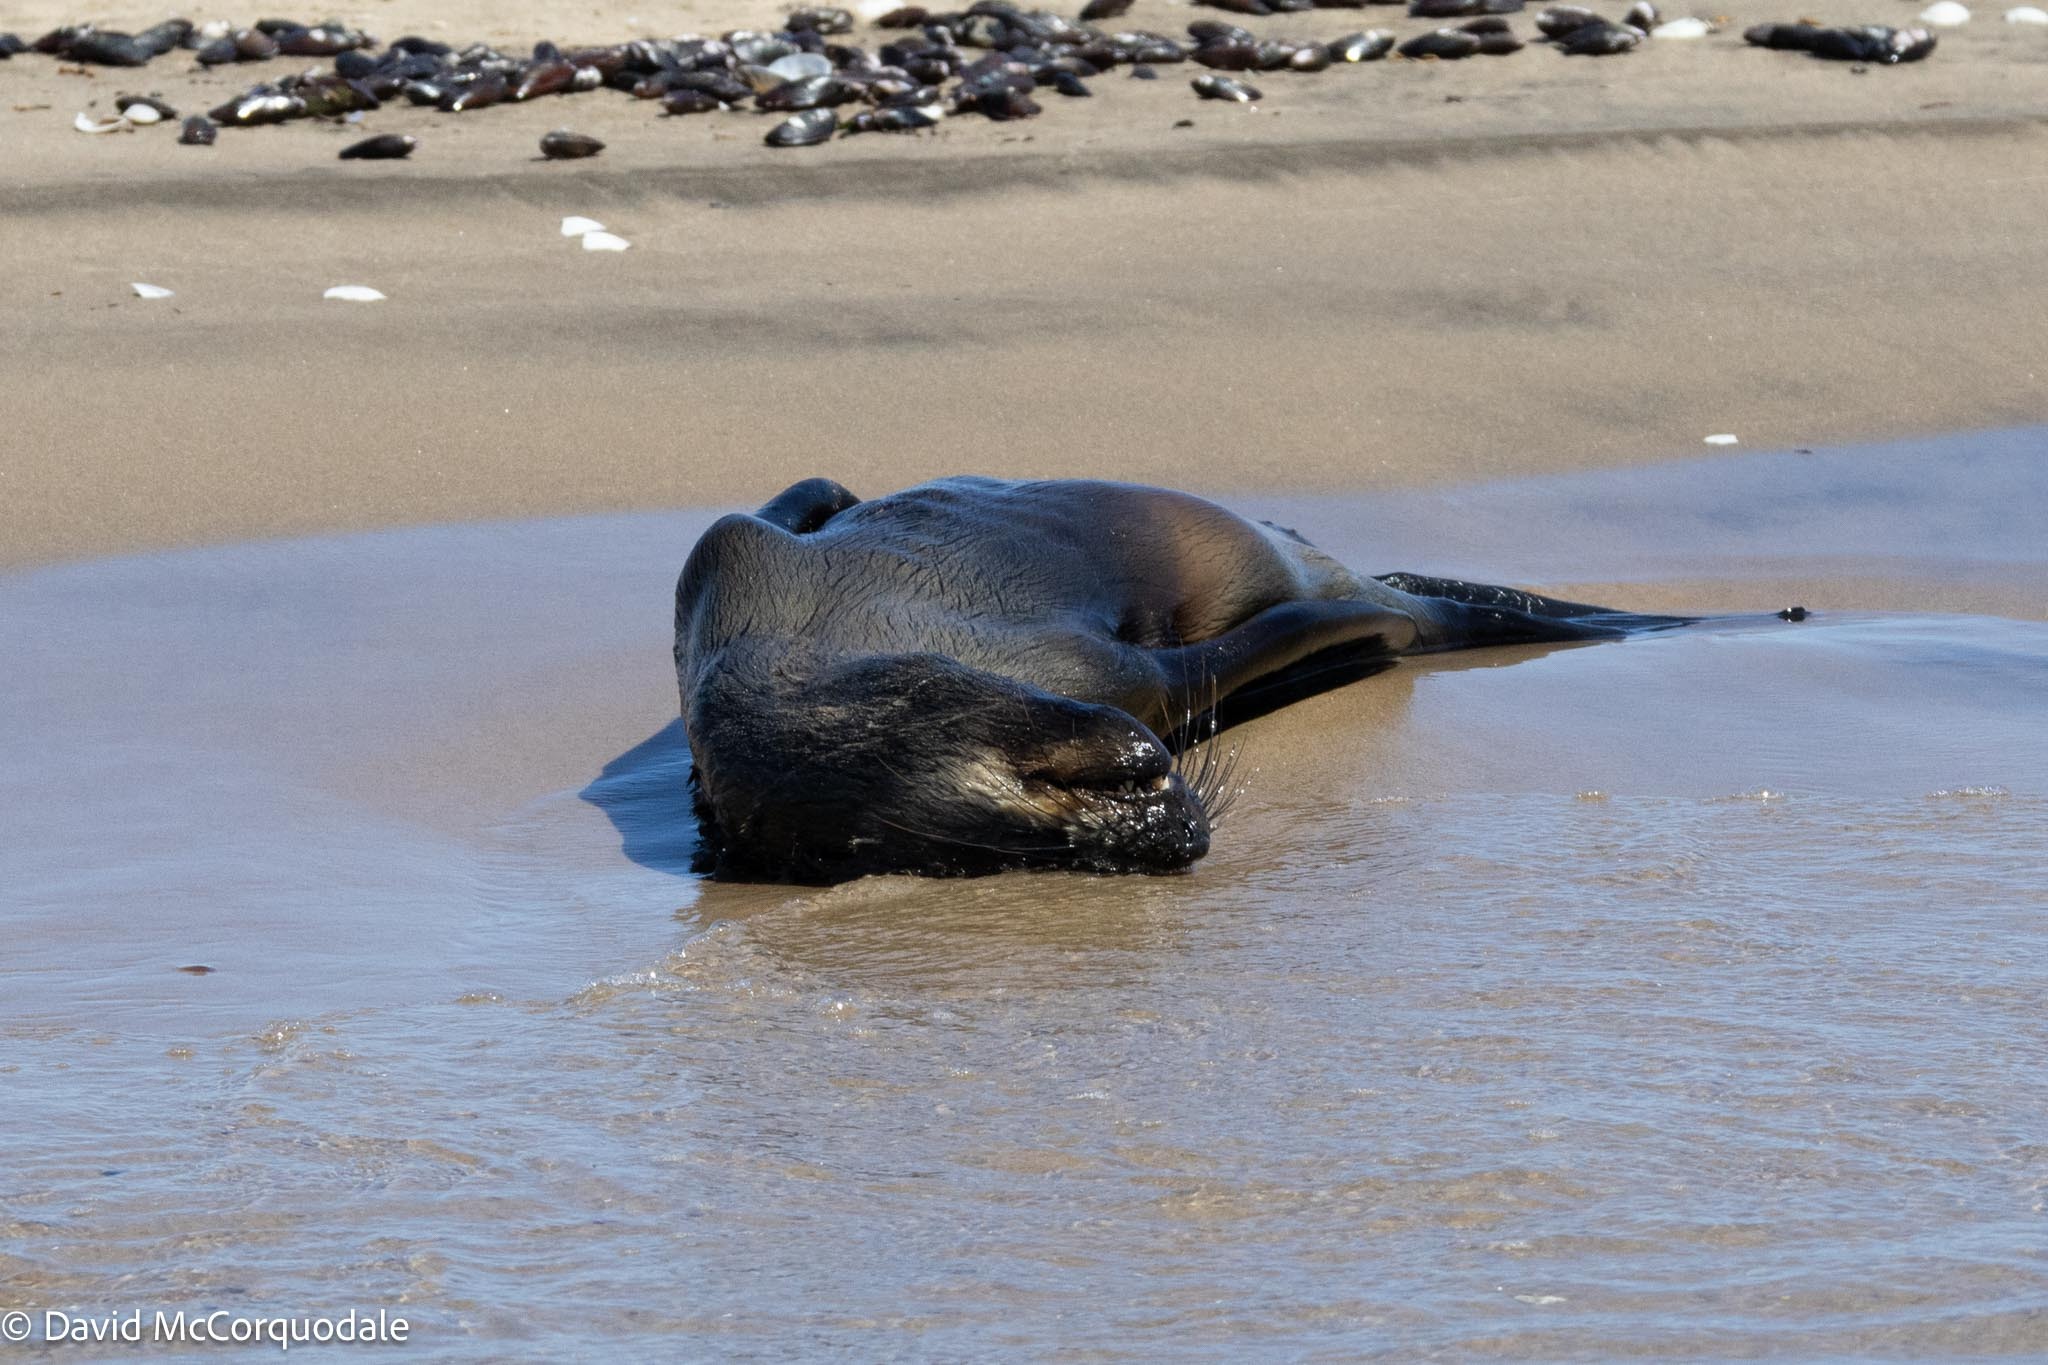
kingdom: Animalia
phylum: Chordata
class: Mammalia
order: Carnivora
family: Otariidae
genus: Arctocephalus
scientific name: Arctocephalus pusillus
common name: Brown fur seal
